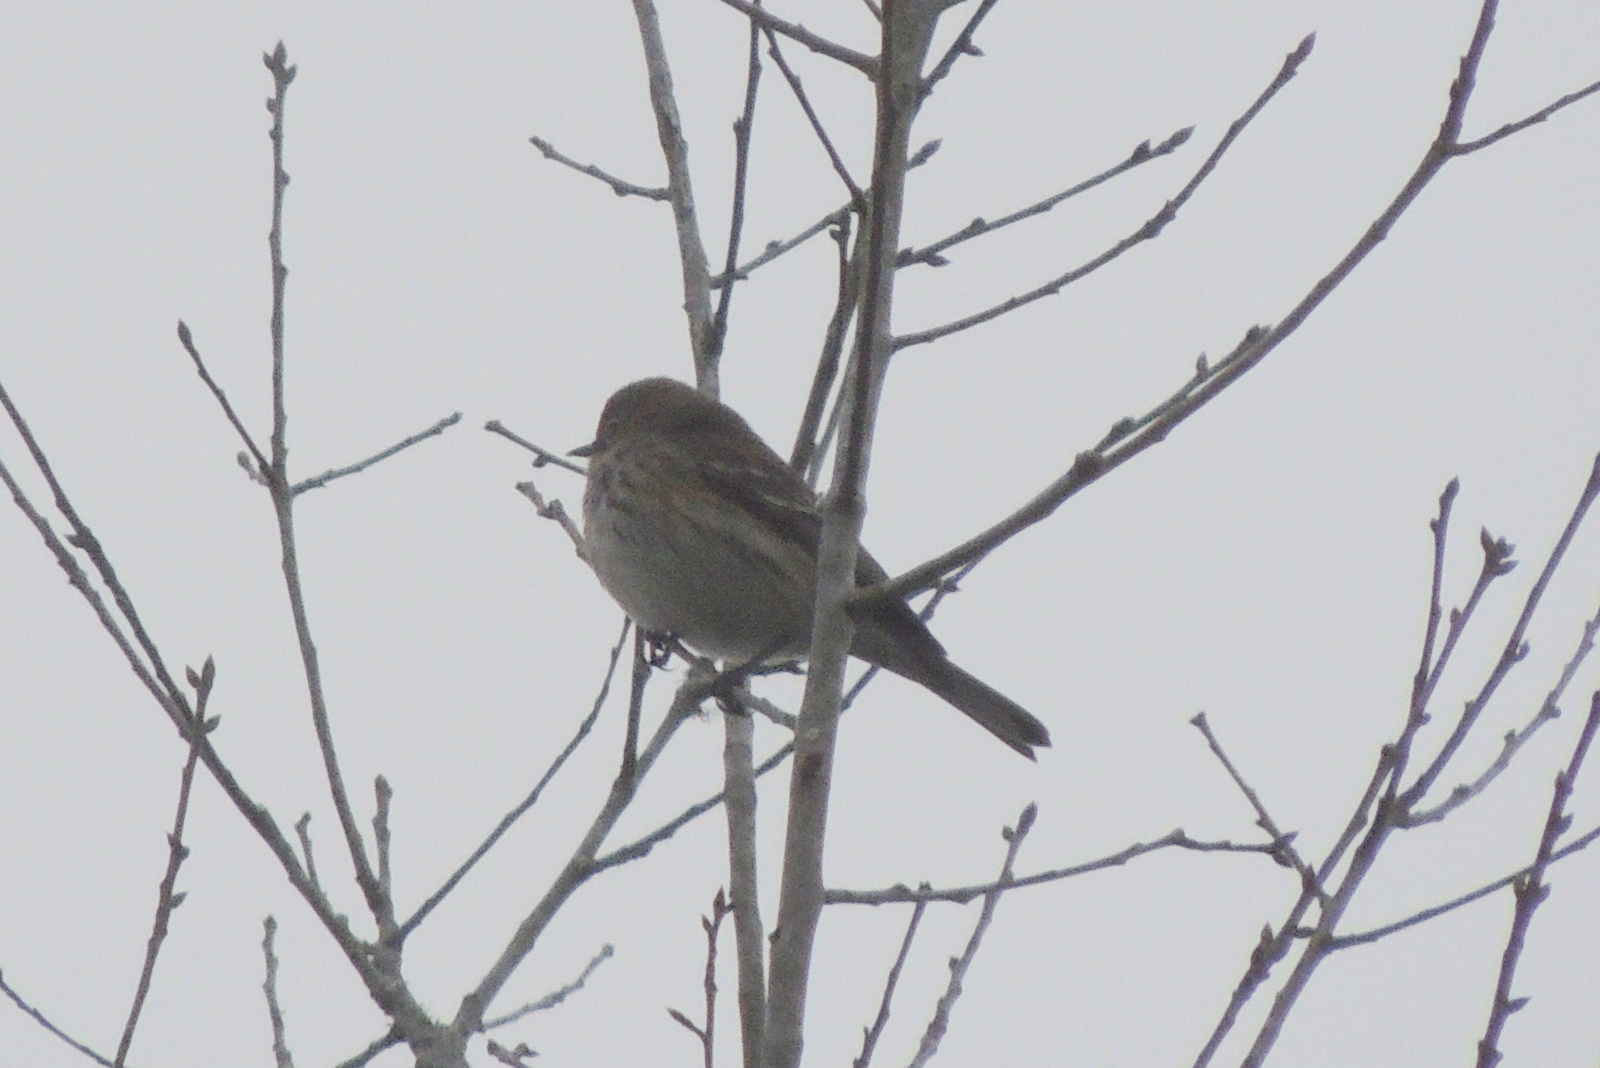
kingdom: Animalia
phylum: Chordata
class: Aves
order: Passeriformes
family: Parulidae
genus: Setophaga
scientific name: Setophaga coronata
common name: Myrtle warbler
